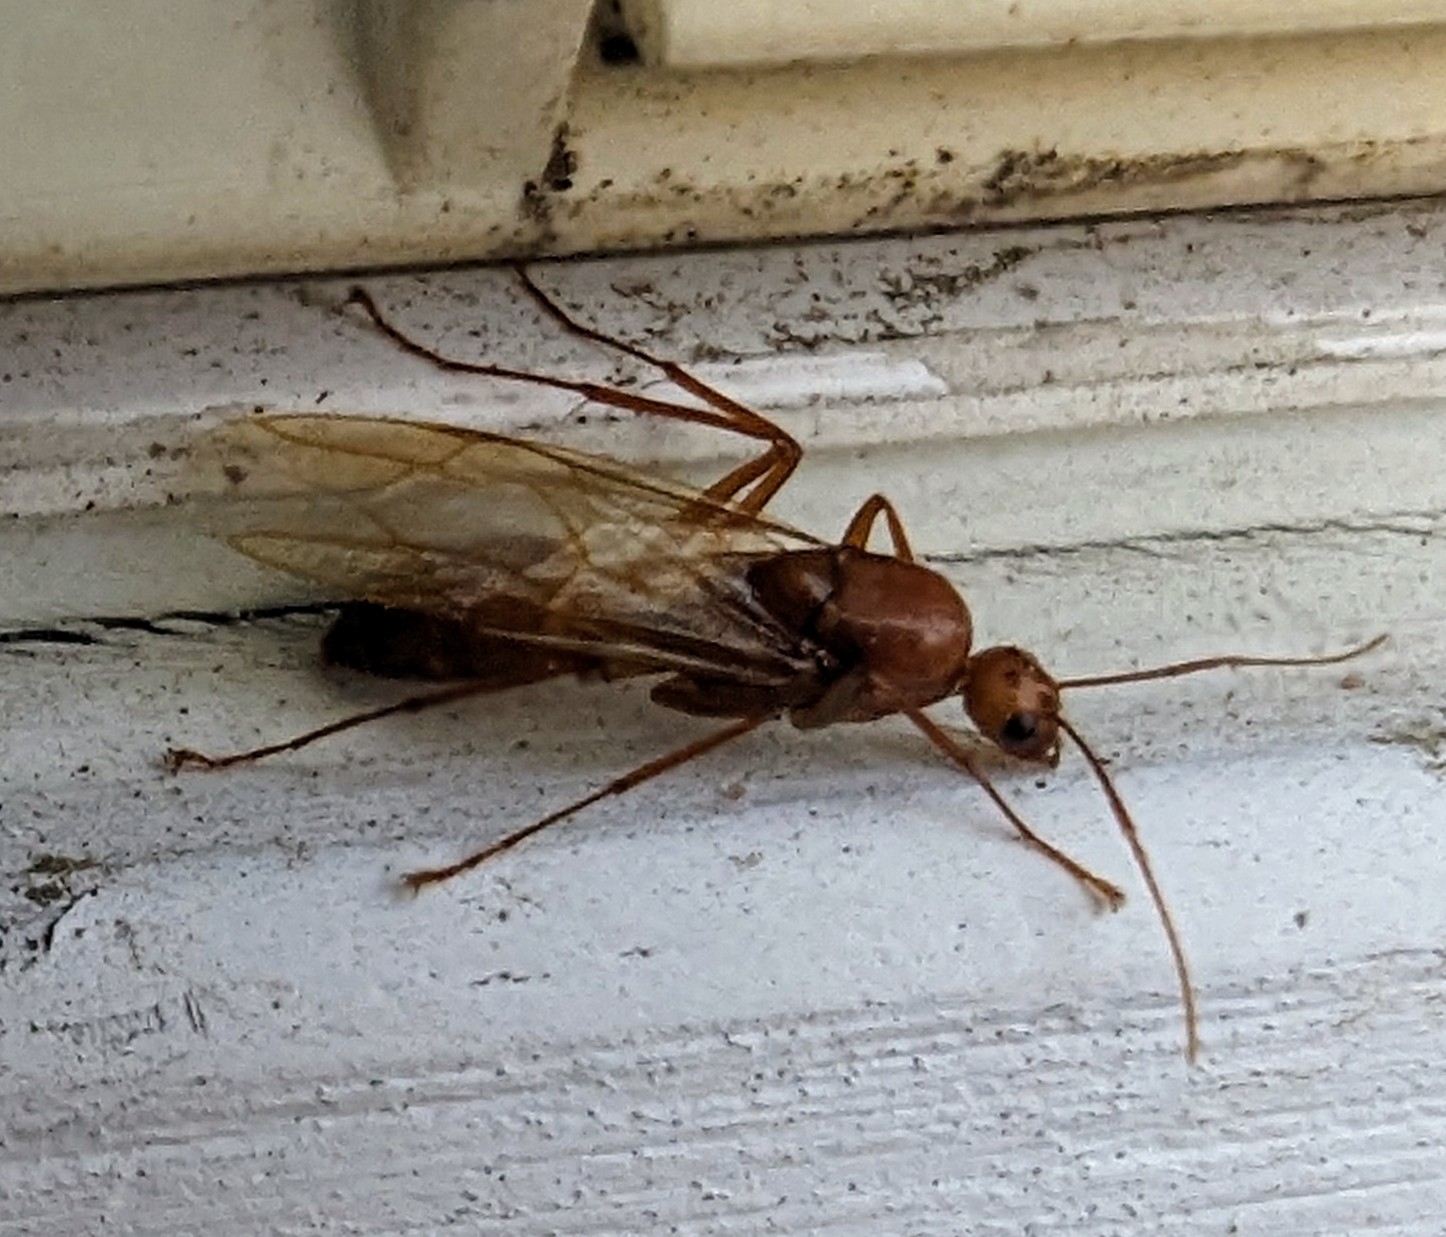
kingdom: Animalia
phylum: Arthropoda
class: Insecta
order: Hymenoptera
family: Formicidae
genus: Camponotus
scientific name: Camponotus castaneus
